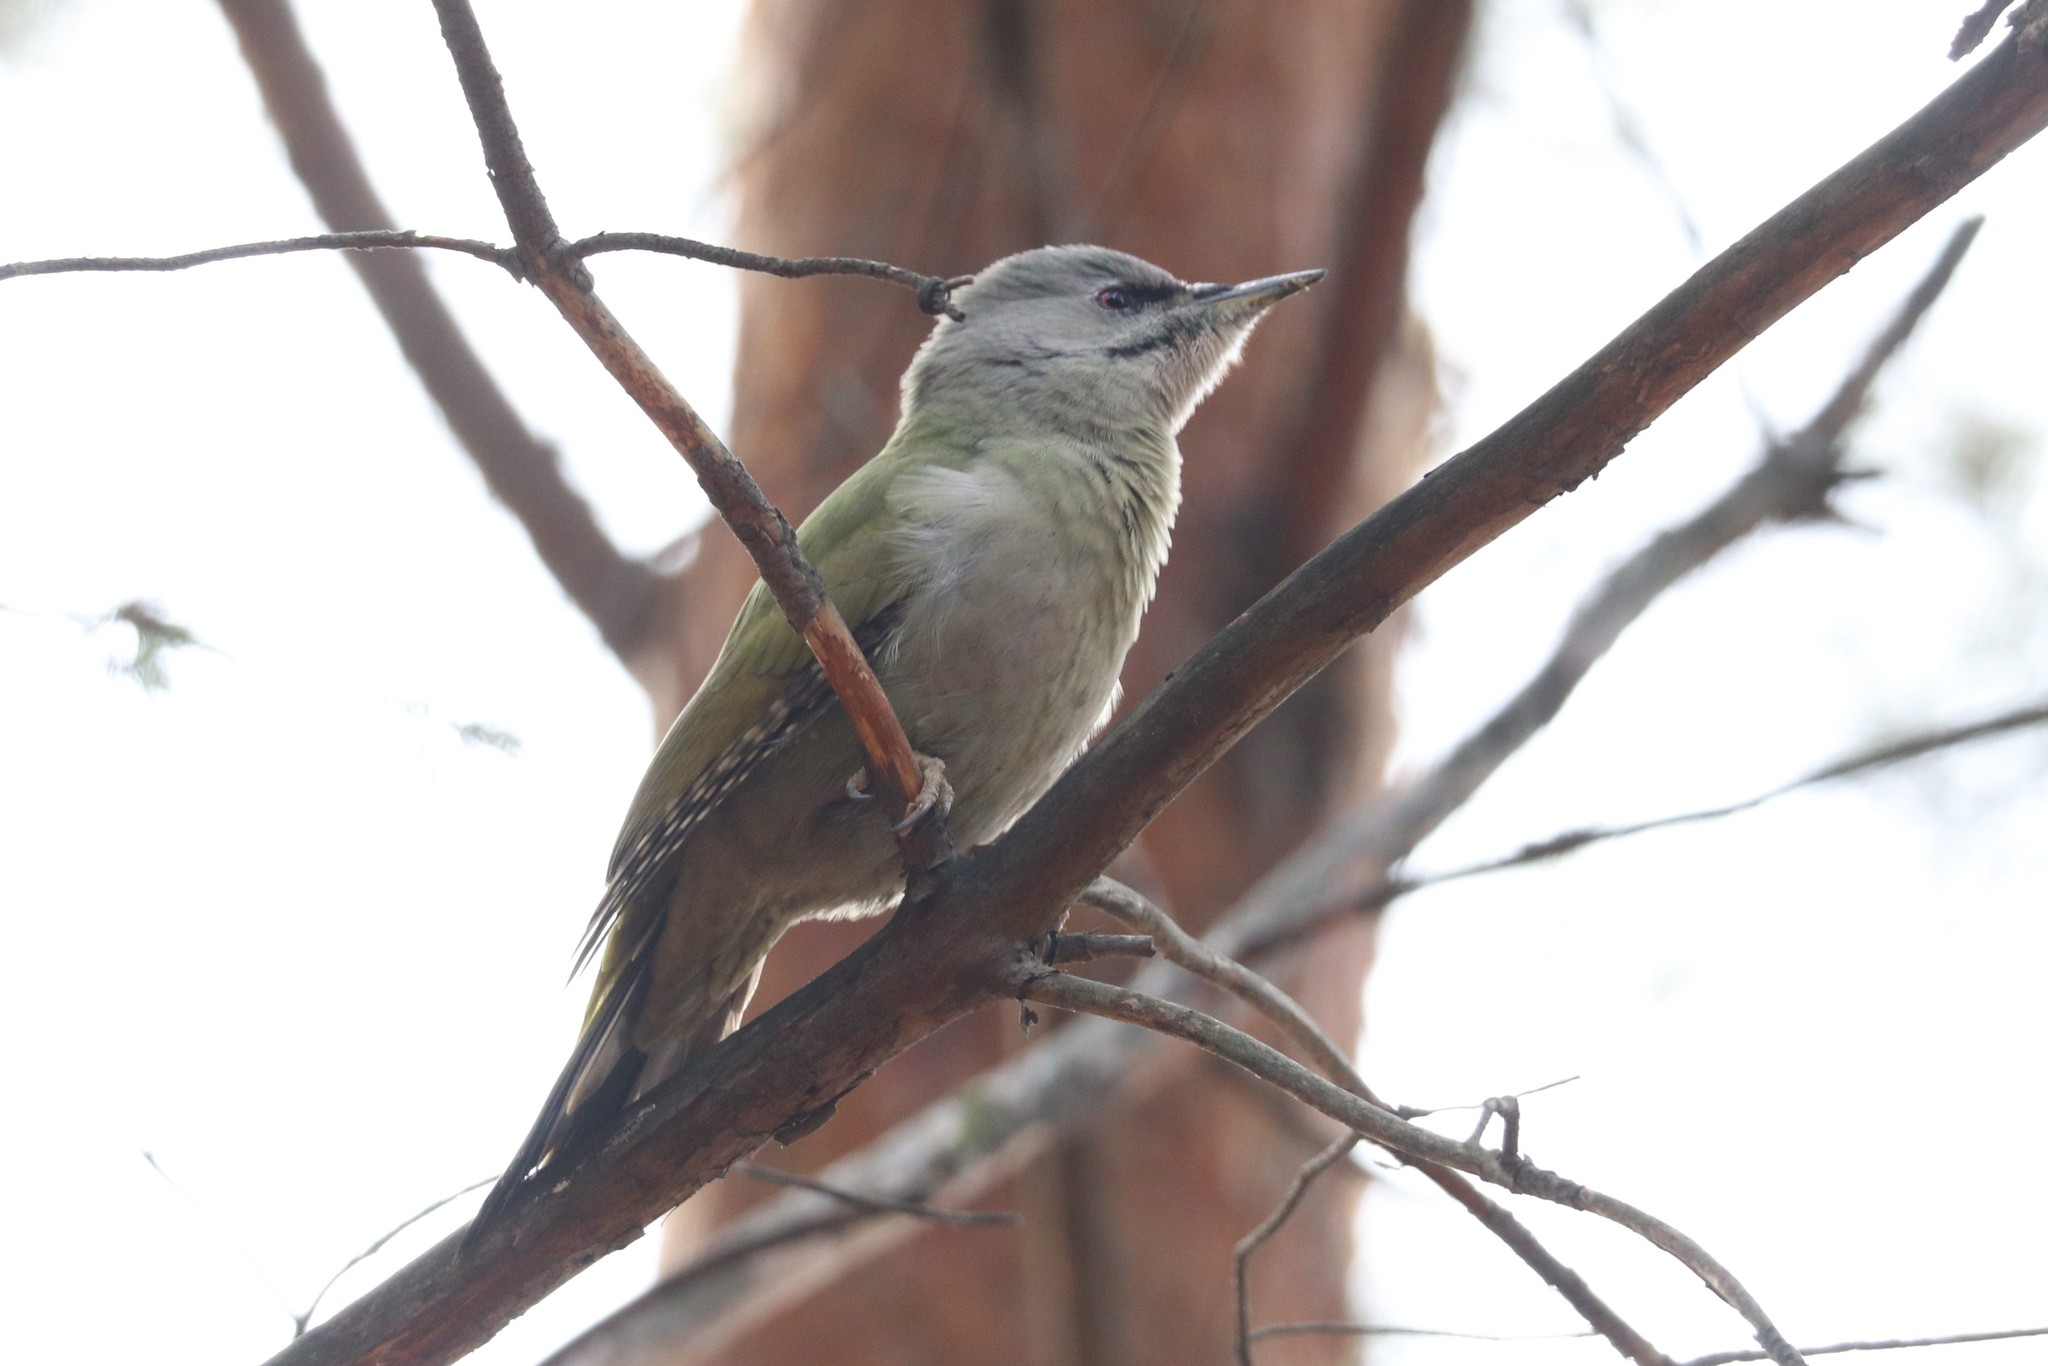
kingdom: Animalia
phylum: Chordata
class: Aves
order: Piciformes
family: Picidae
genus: Picus
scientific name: Picus canus
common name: Grey-headed woodpecker
